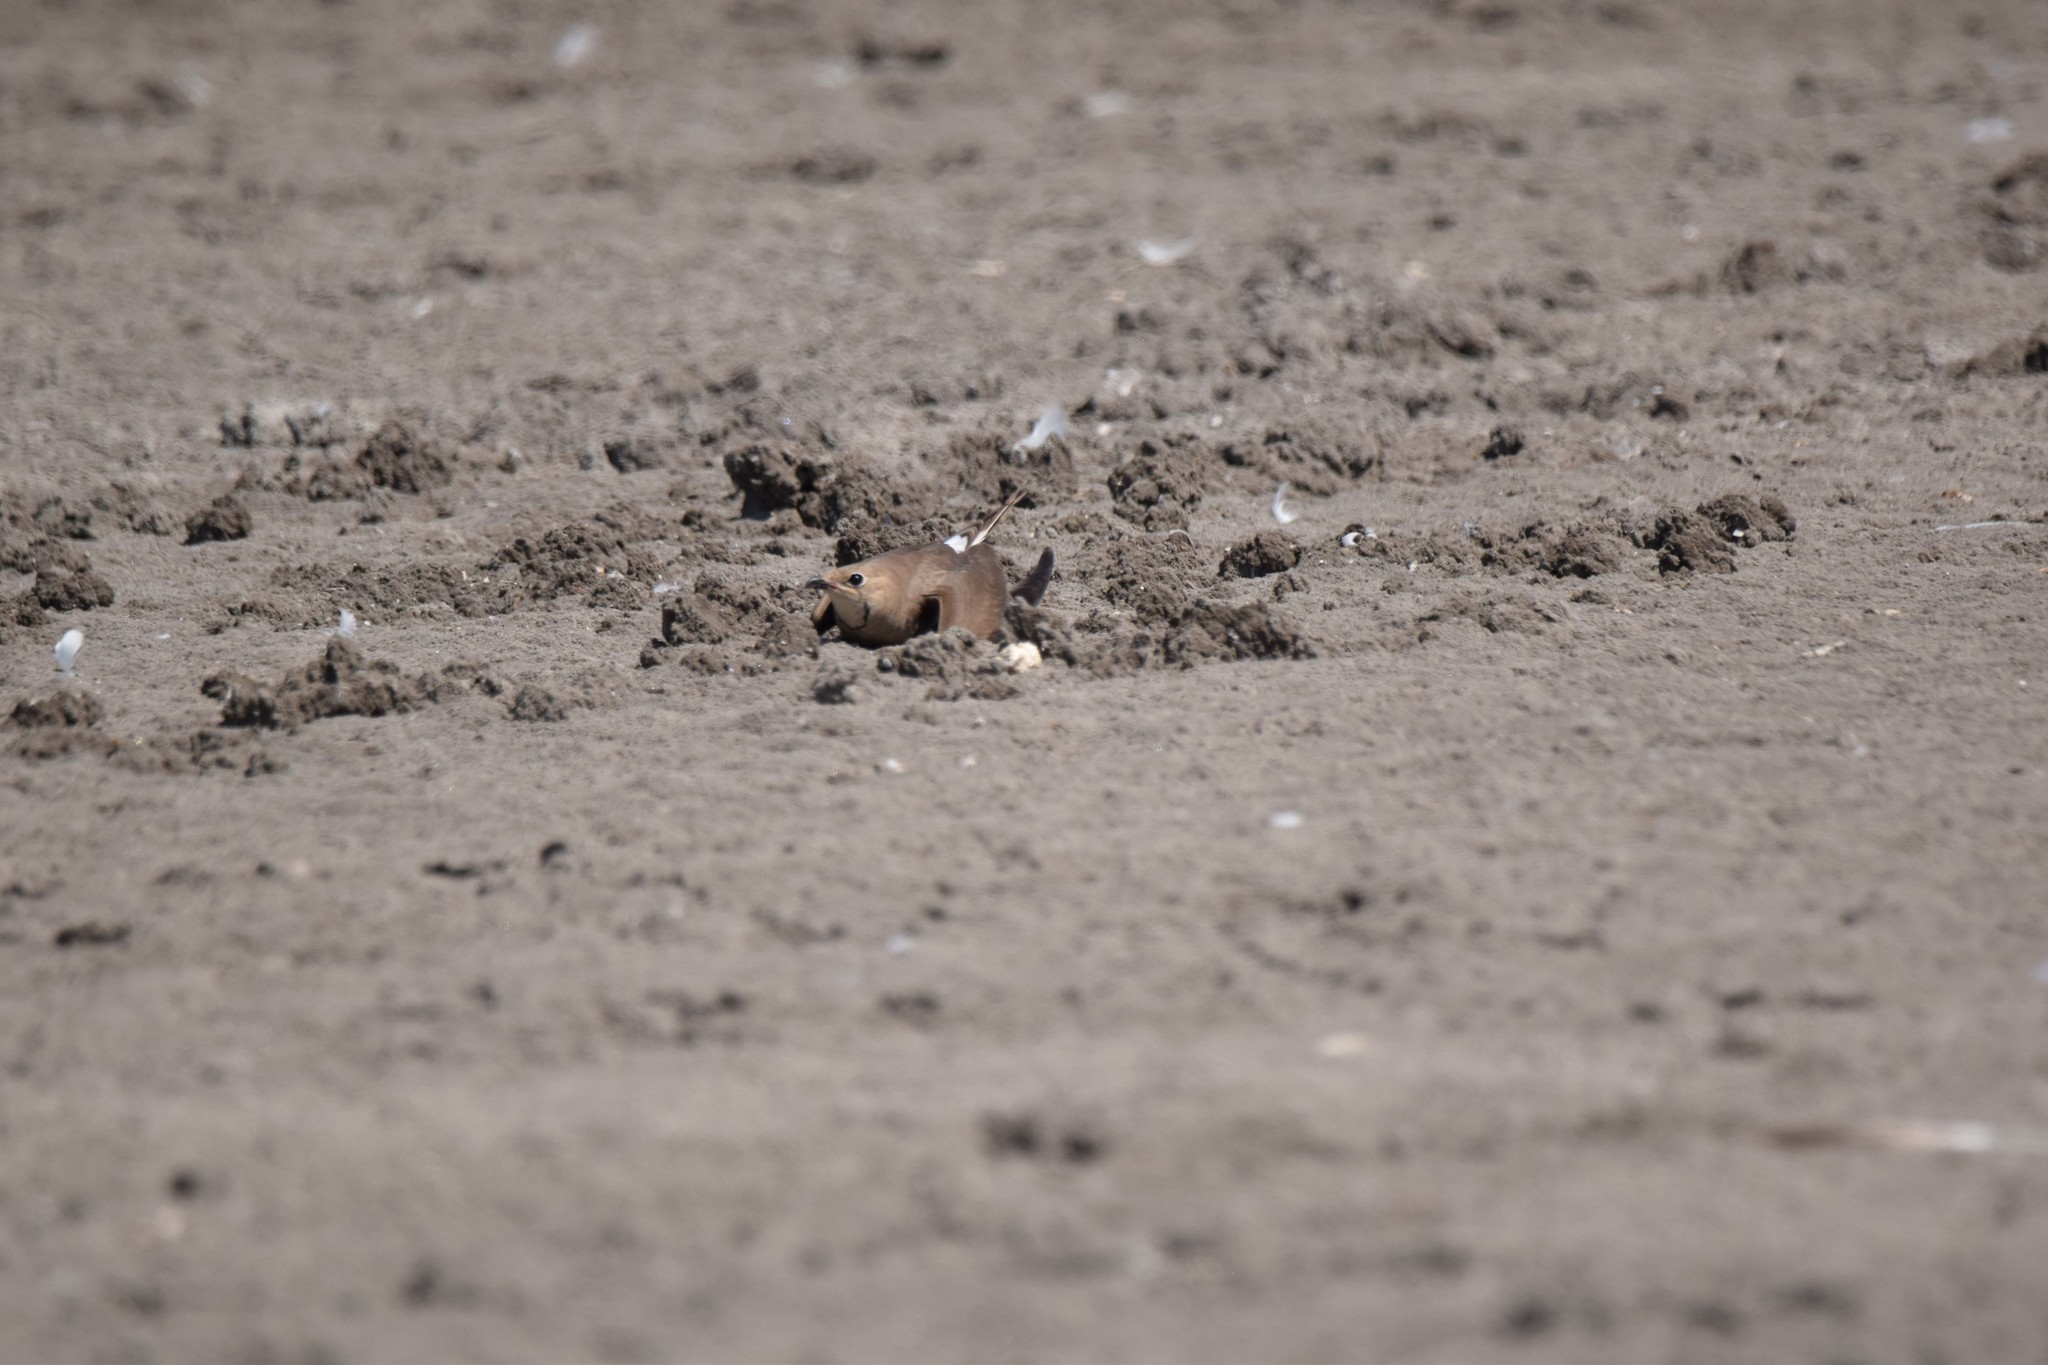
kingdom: Animalia
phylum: Chordata
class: Aves
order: Charadriiformes
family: Glareolidae
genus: Glareola
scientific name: Glareola pratincola
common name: Collared pratincole
